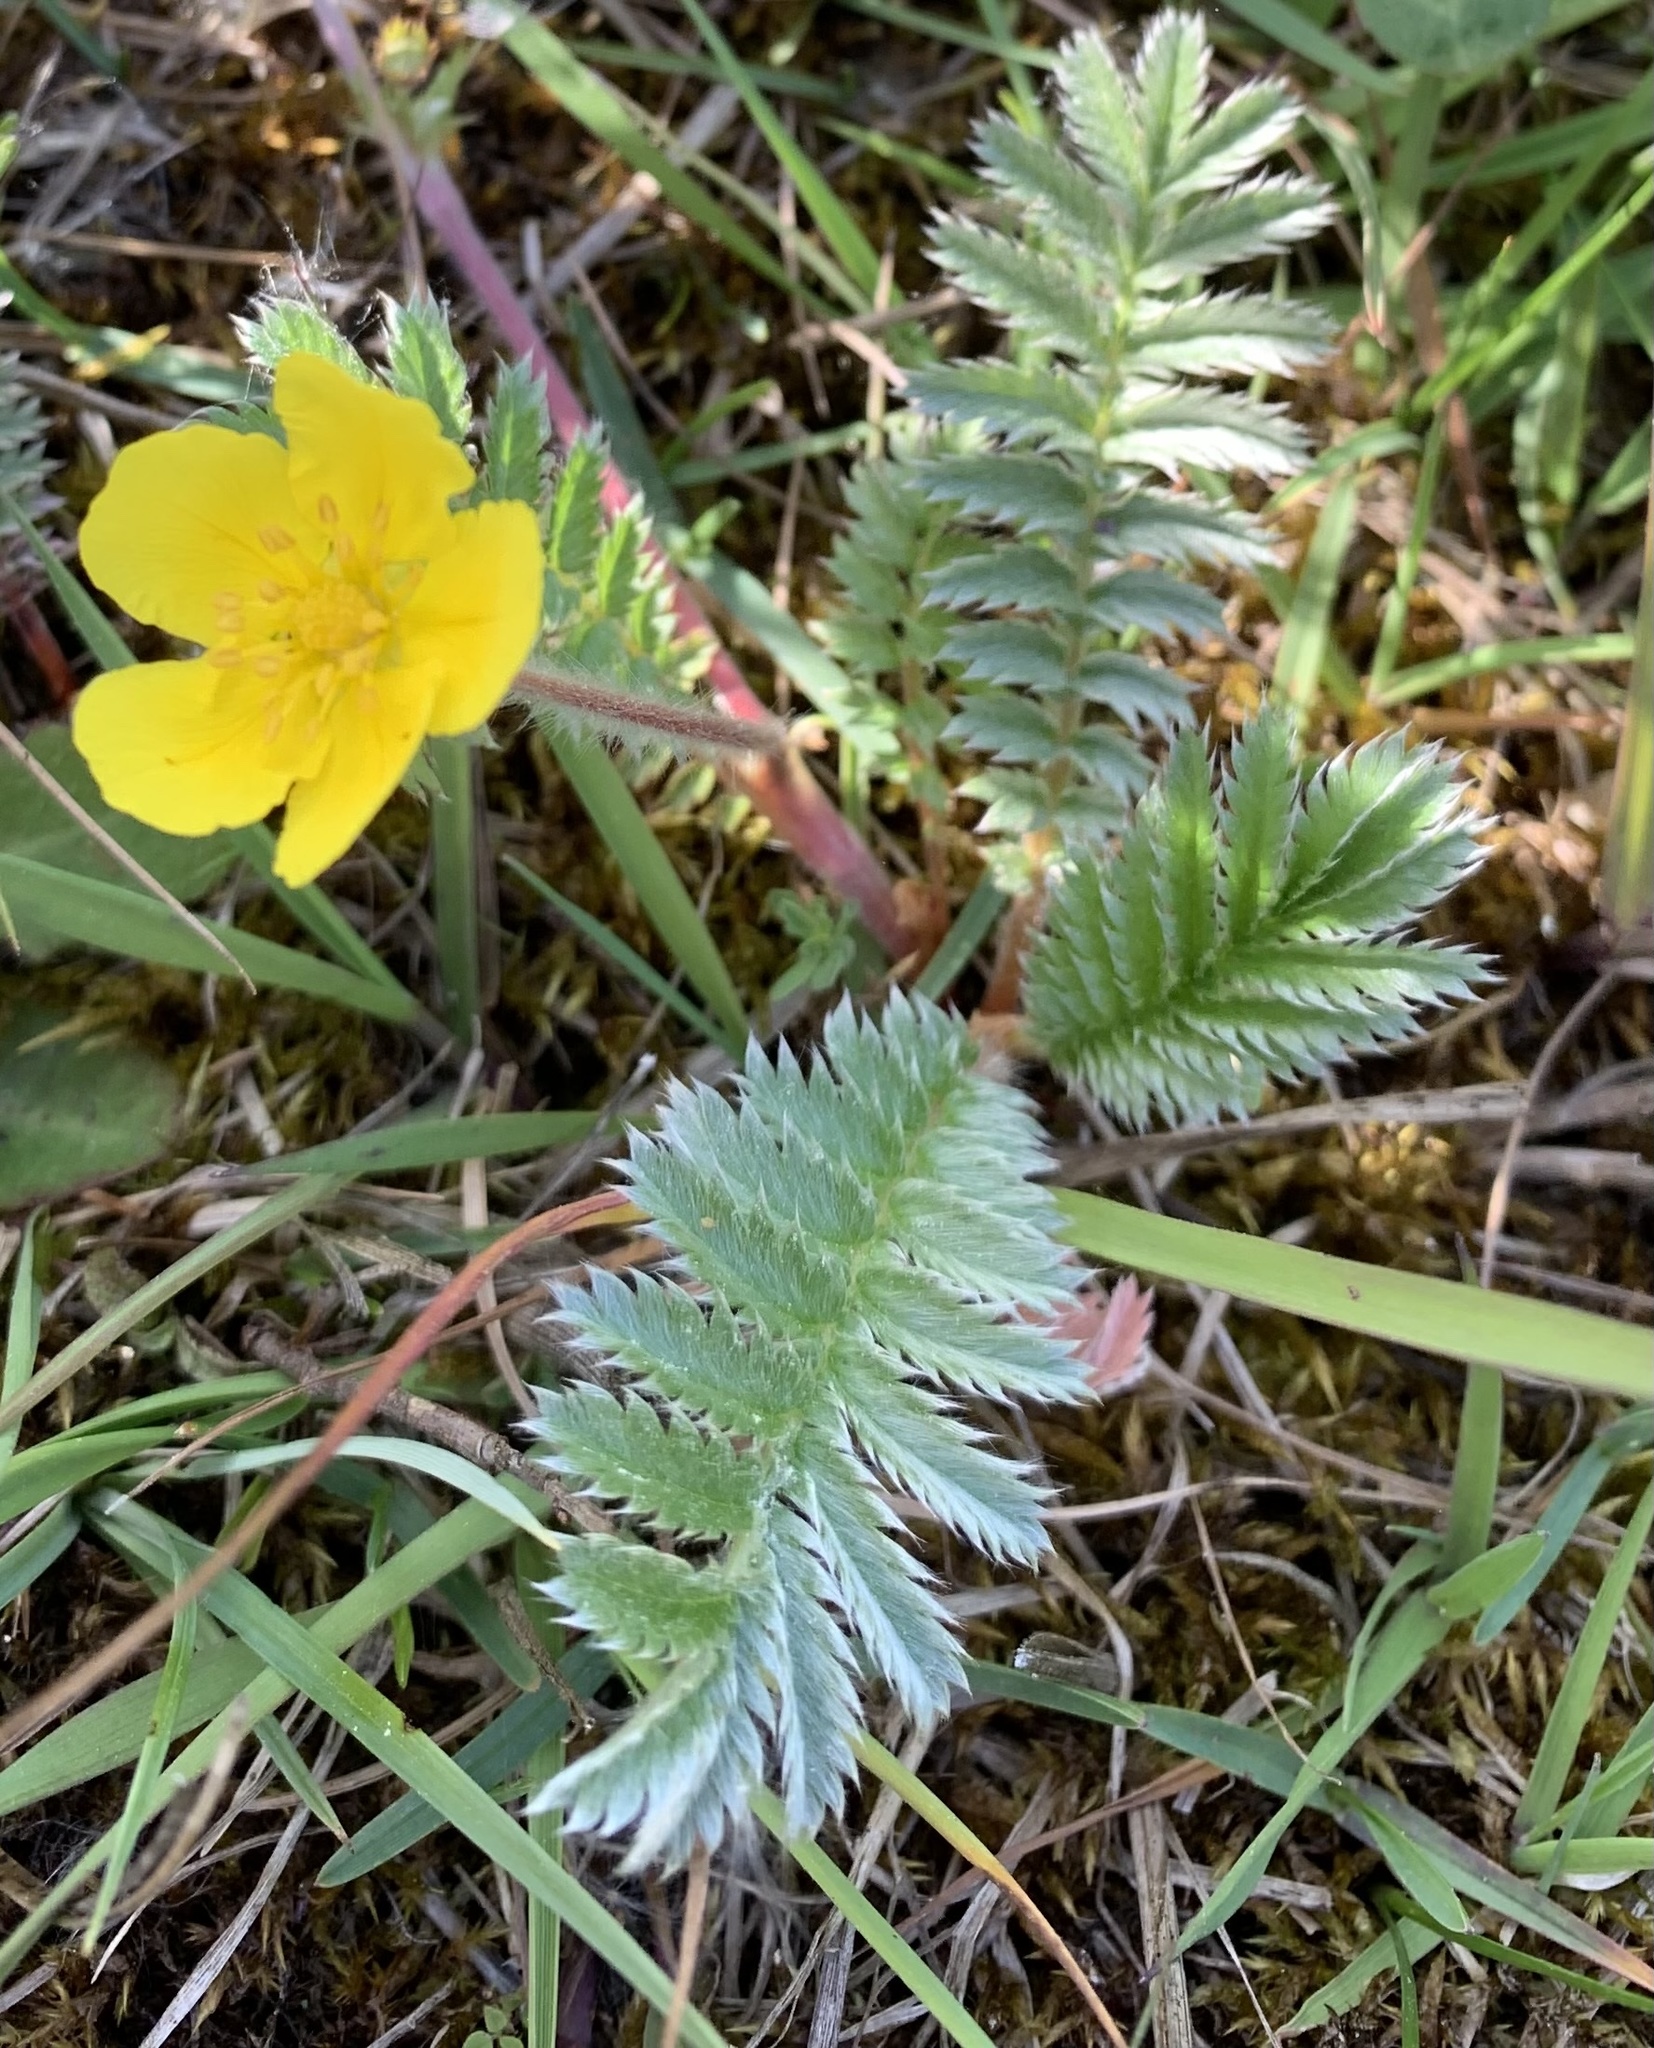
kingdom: Plantae
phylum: Tracheophyta
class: Magnoliopsida
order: Rosales
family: Rosaceae
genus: Argentina
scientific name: Argentina anserina
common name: Common silverweed
